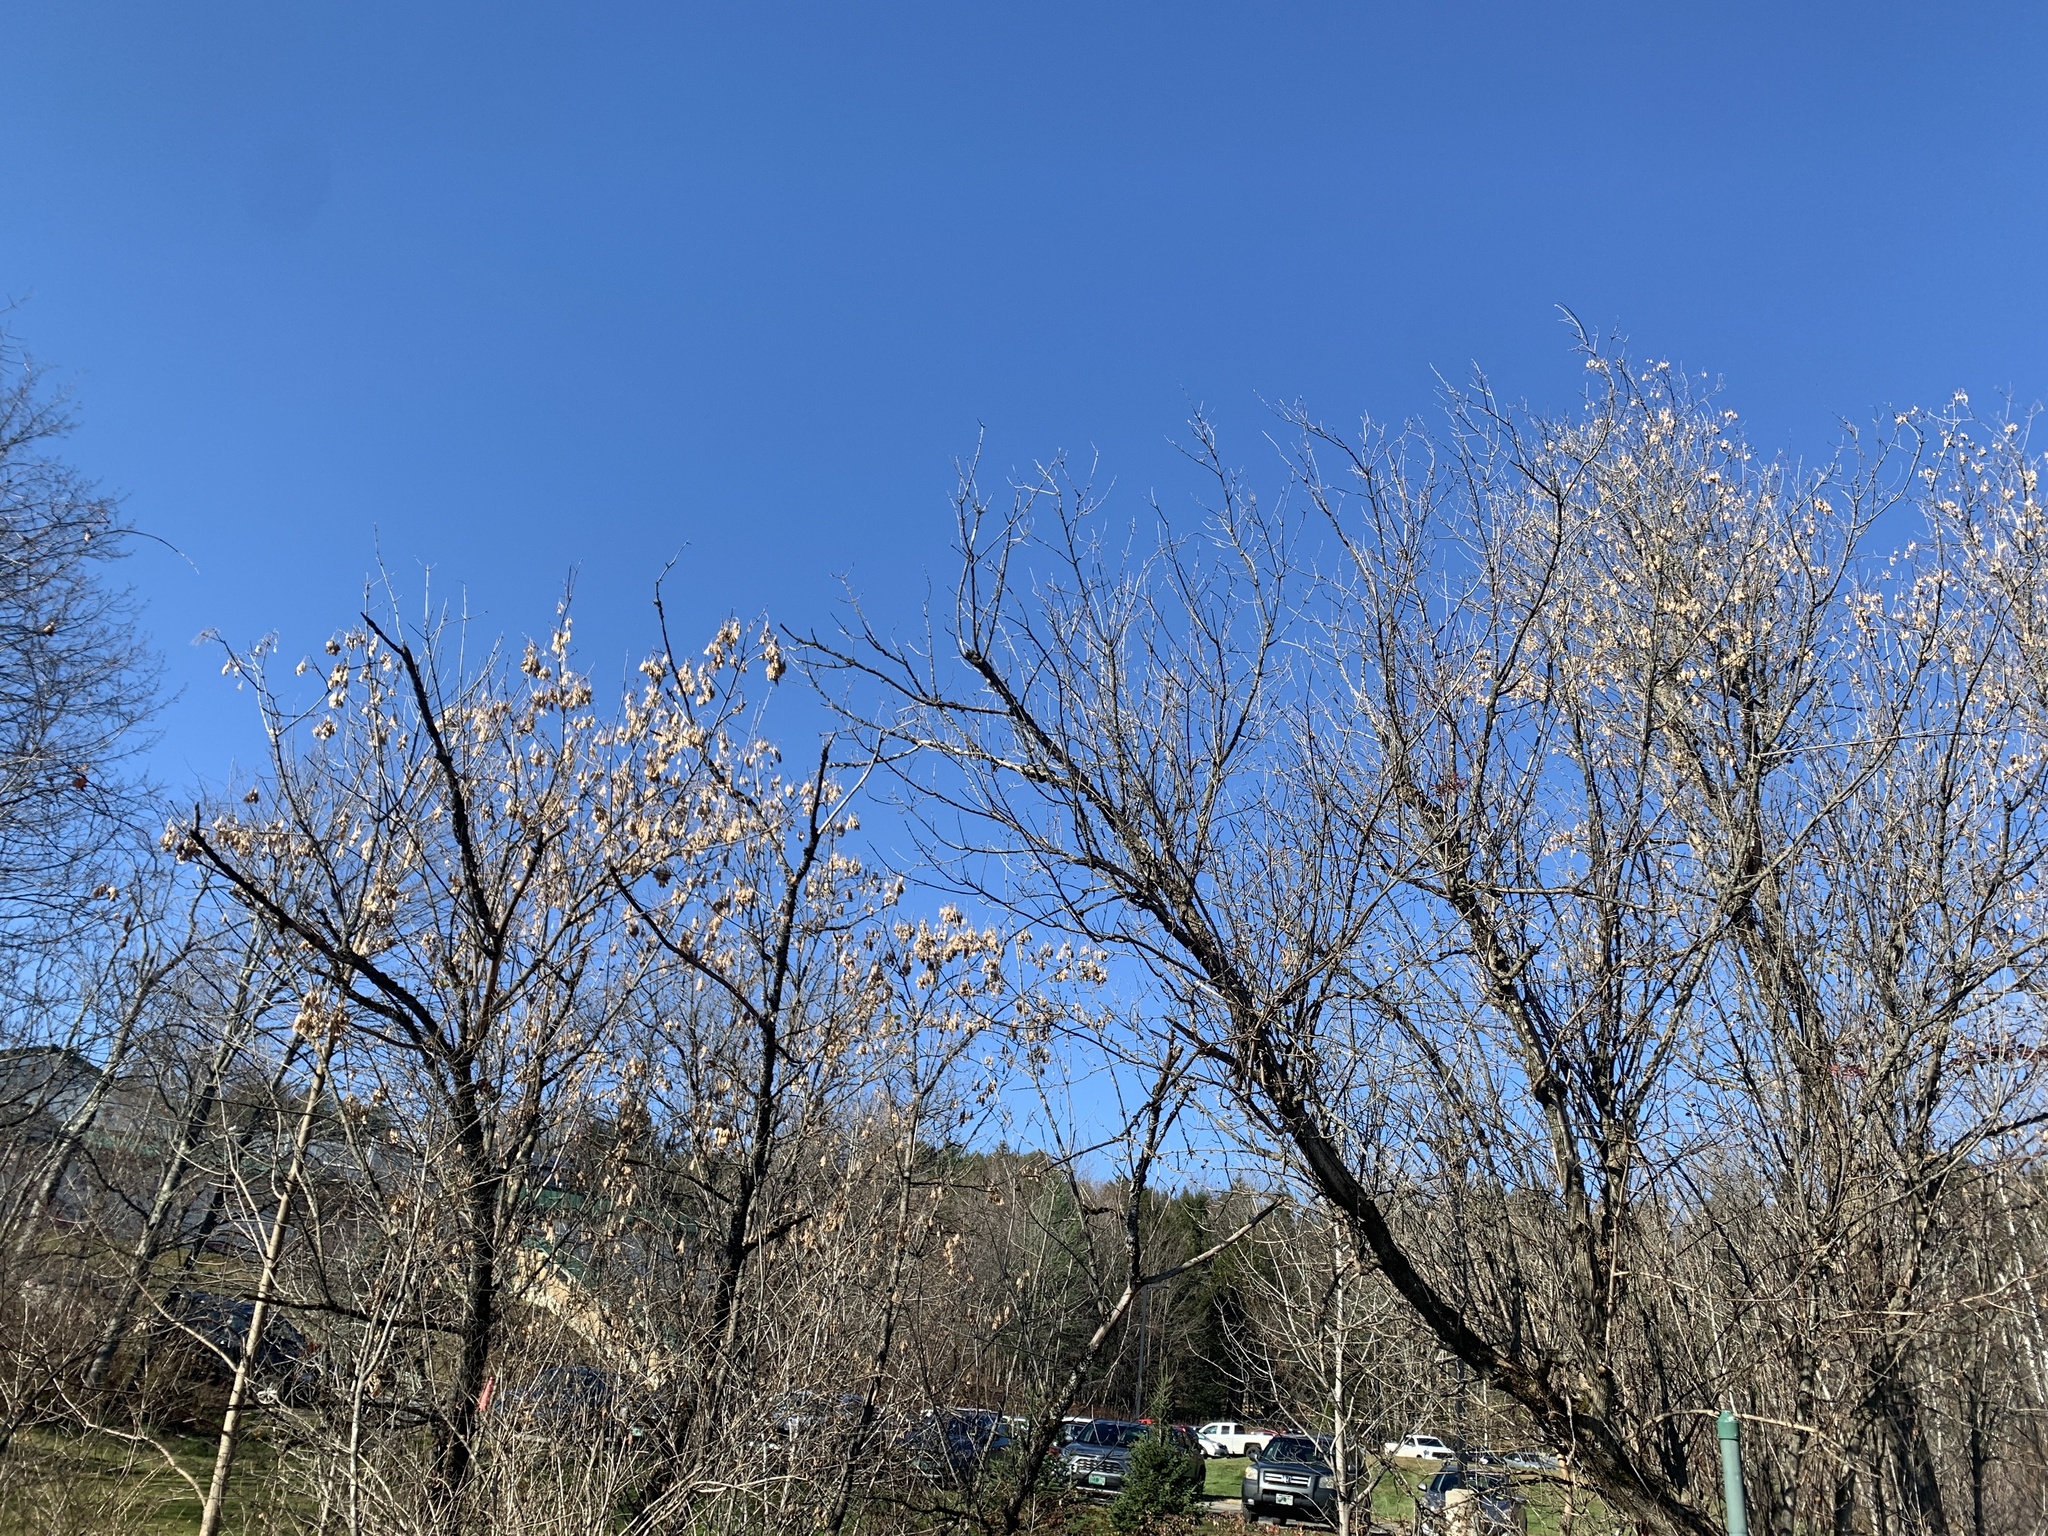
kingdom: Plantae
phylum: Tracheophyta
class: Magnoliopsida
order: Sapindales
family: Sapindaceae
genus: Acer
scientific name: Acer negundo
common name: Ashleaf maple
